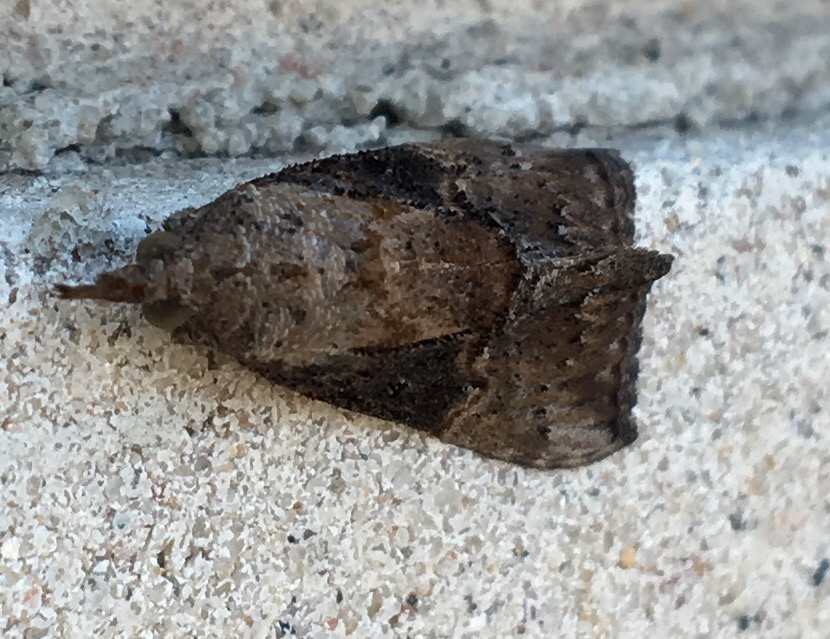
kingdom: Animalia
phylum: Arthropoda
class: Insecta
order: Lepidoptera
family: Erebidae
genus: Hypena
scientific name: Hypena scabra
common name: Green cloverworm
